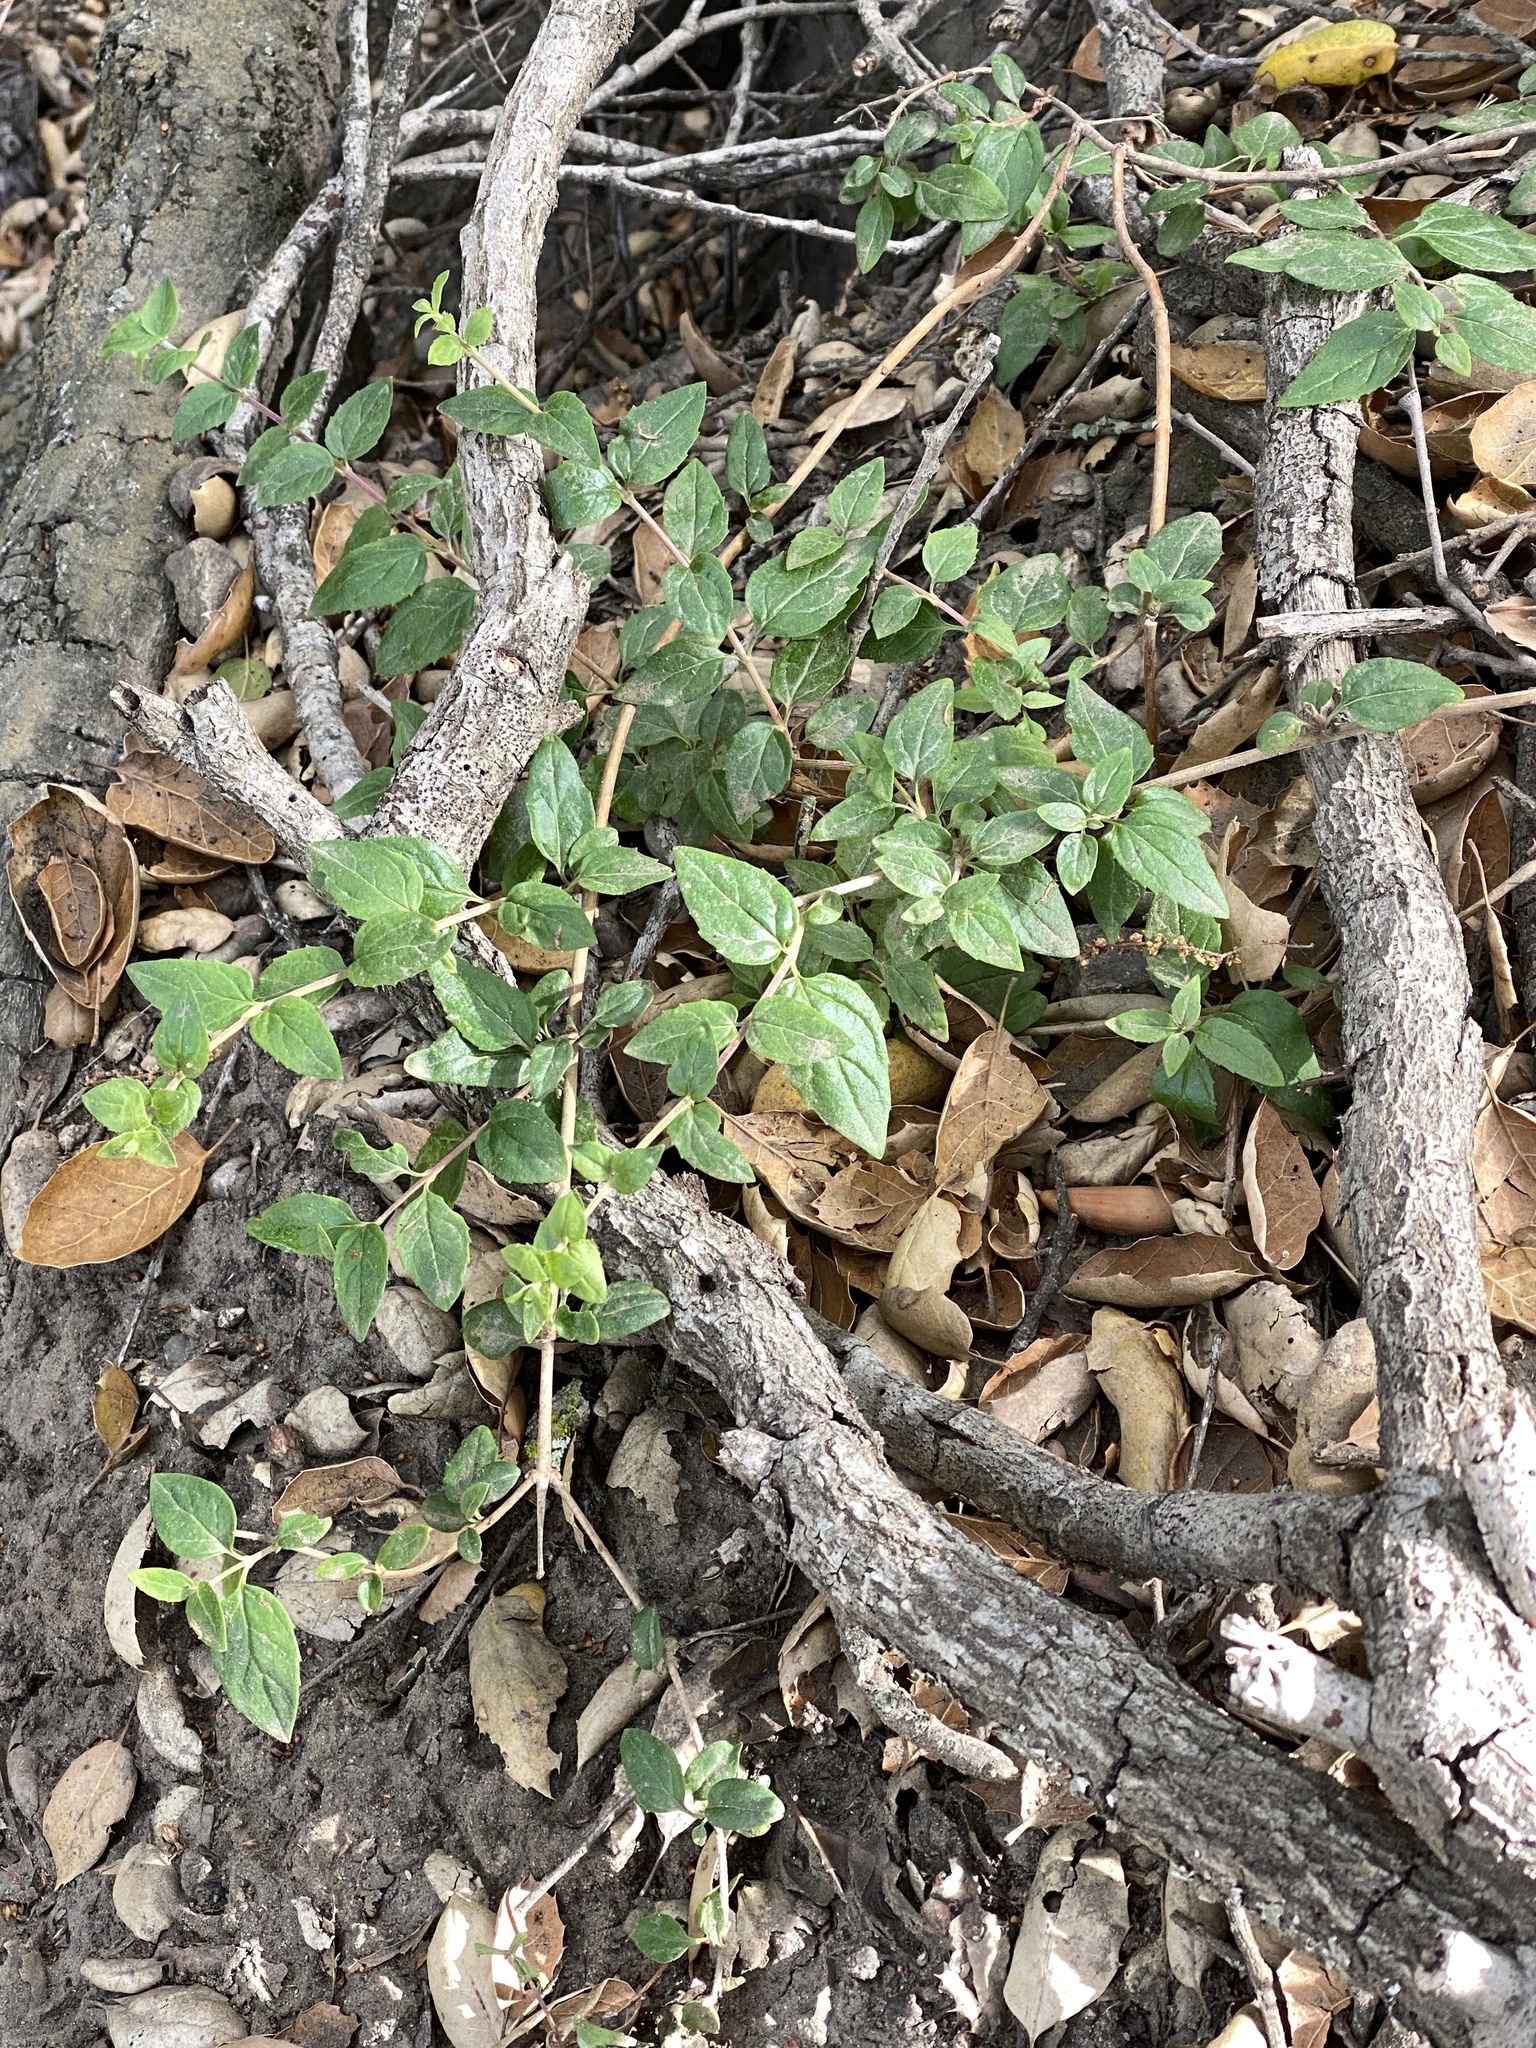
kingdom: Plantae
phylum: Tracheophyta
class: Magnoliopsida
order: Lamiales
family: Plantaginaceae
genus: Keckiella
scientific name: Keckiella cordifolia
